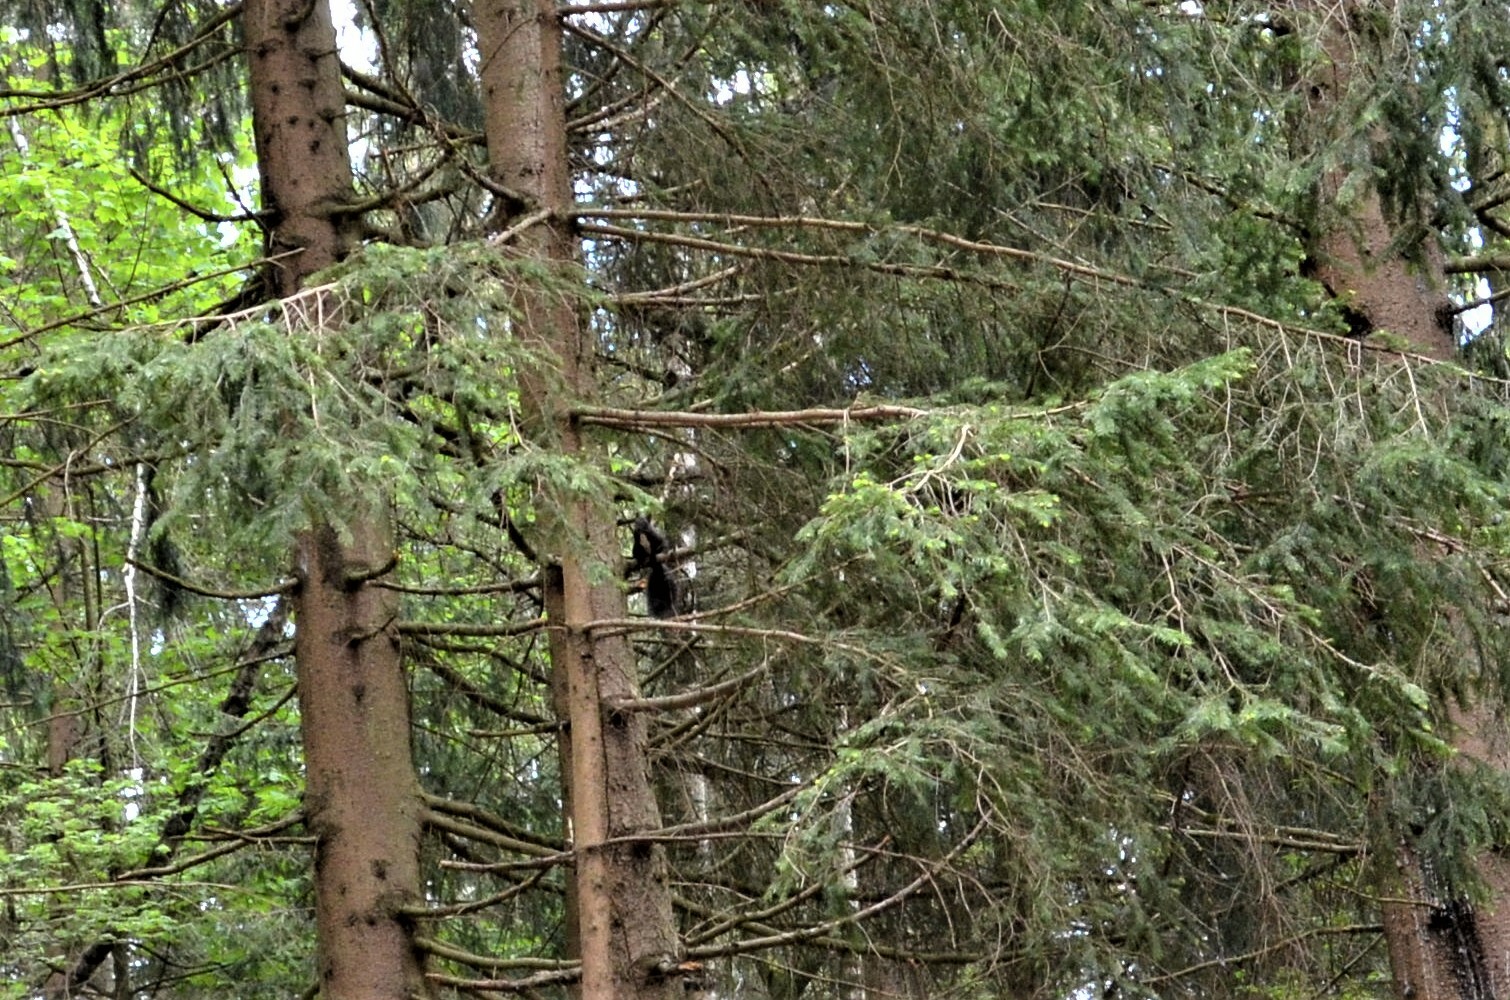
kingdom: Animalia
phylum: Chordata
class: Mammalia
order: Rodentia
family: Sciuridae
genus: Sciurus
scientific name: Sciurus vulgaris
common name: Eurasian red squirrel
